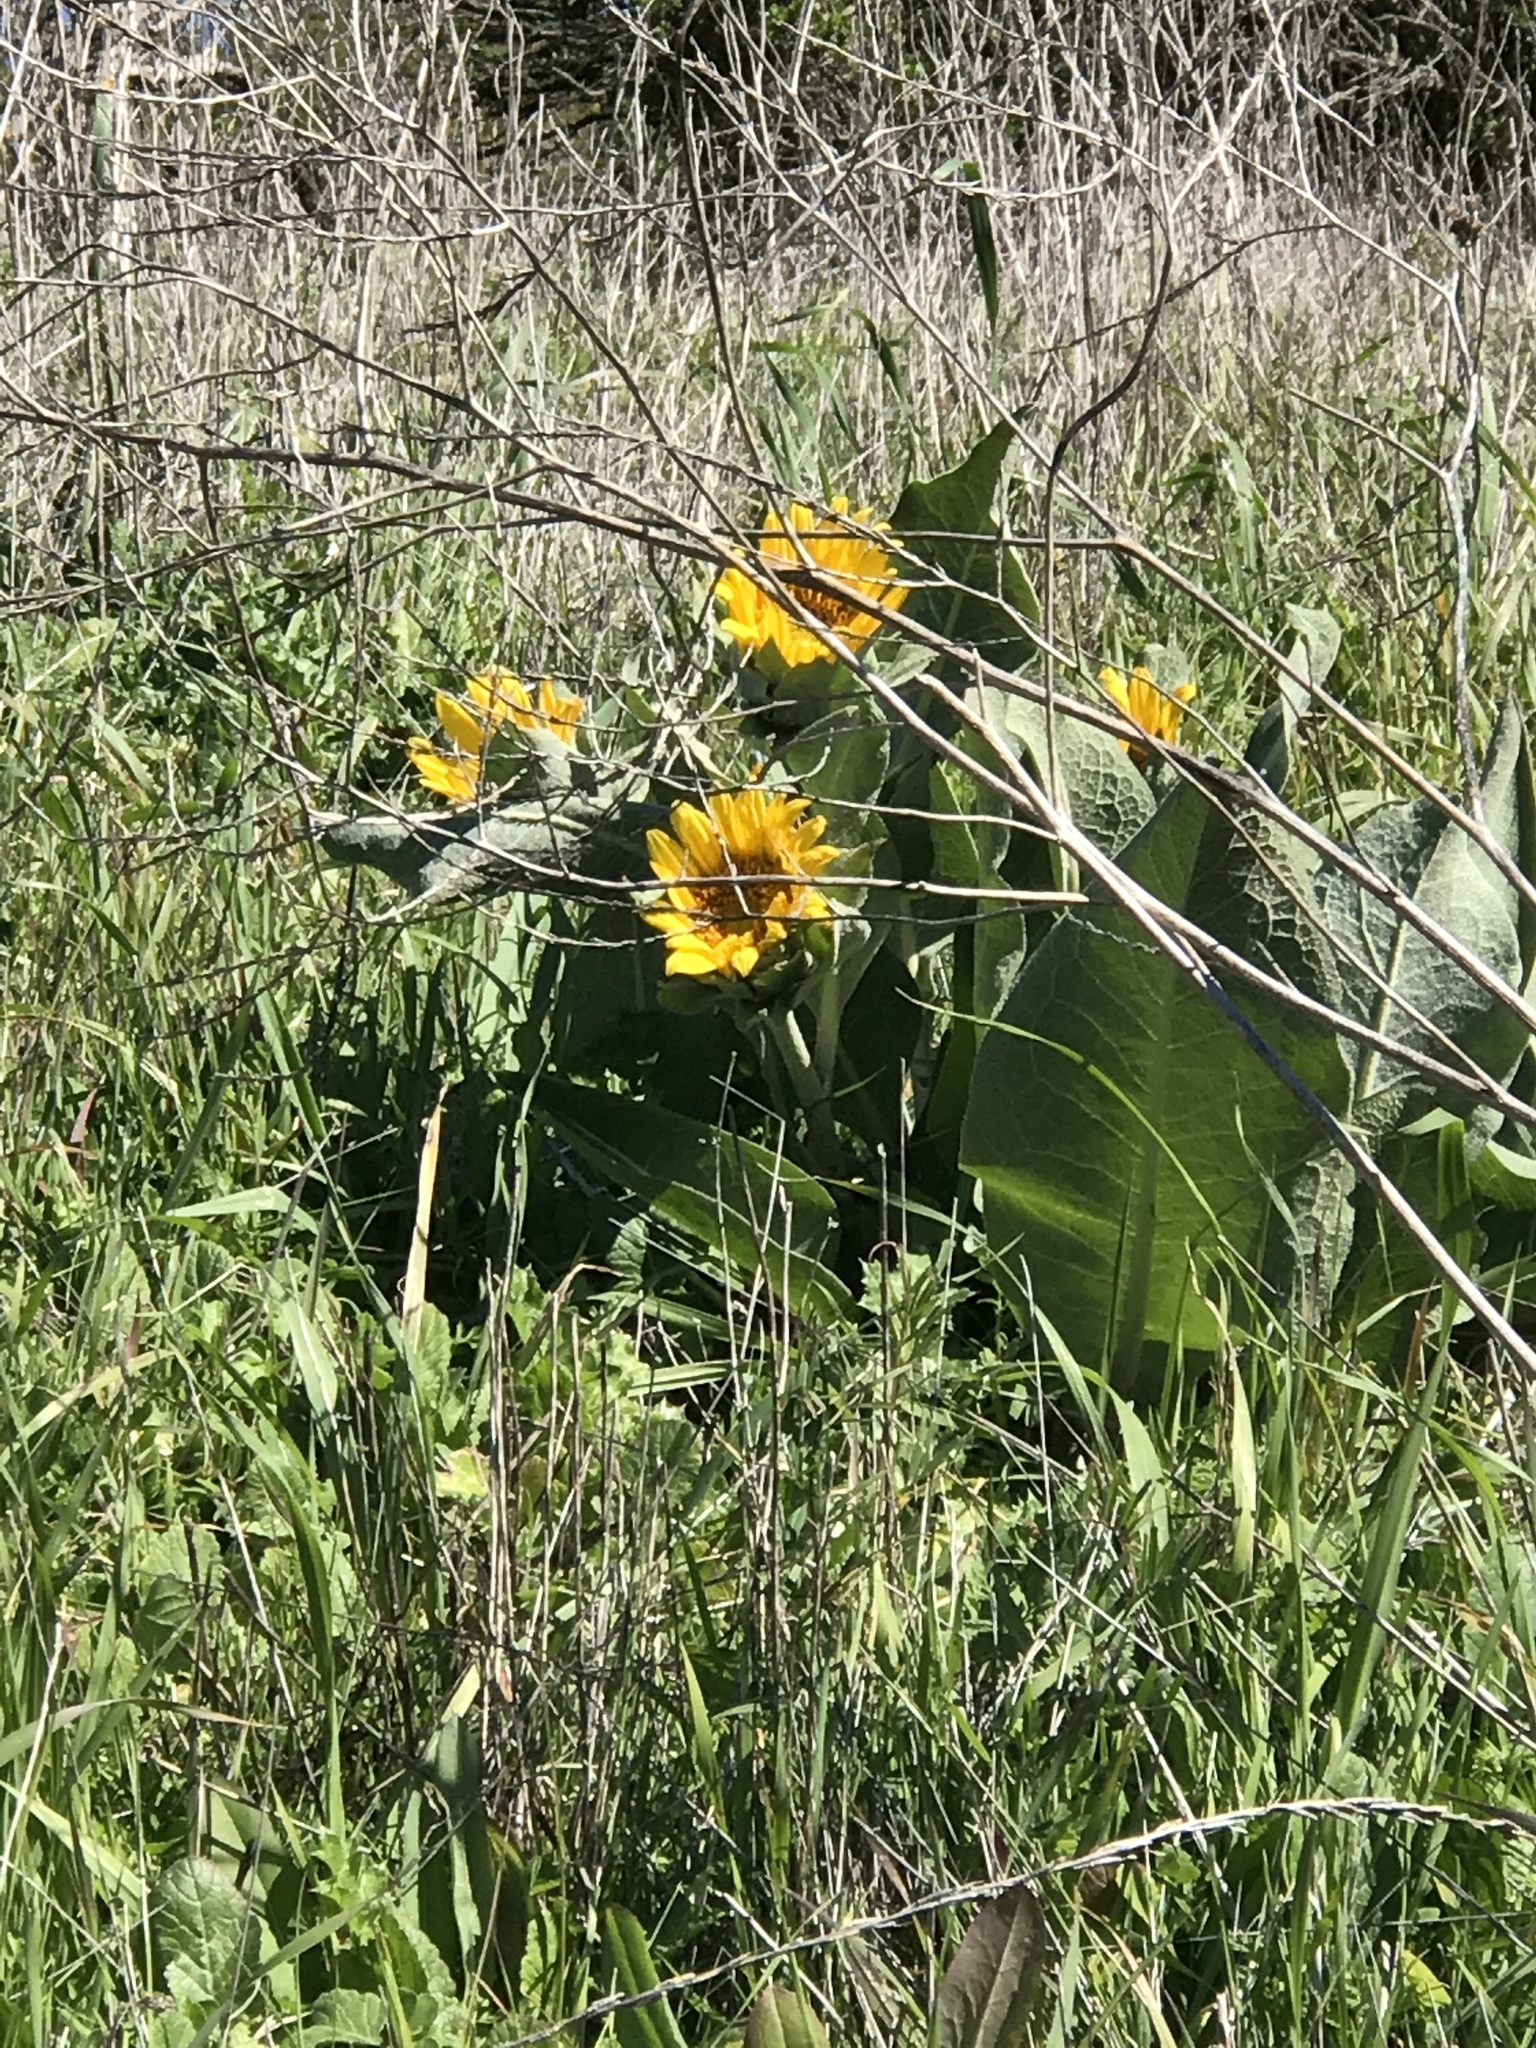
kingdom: Plantae
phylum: Tracheophyta
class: Magnoliopsida
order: Asterales
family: Asteraceae
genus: Wyethia
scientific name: Wyethia glabra
